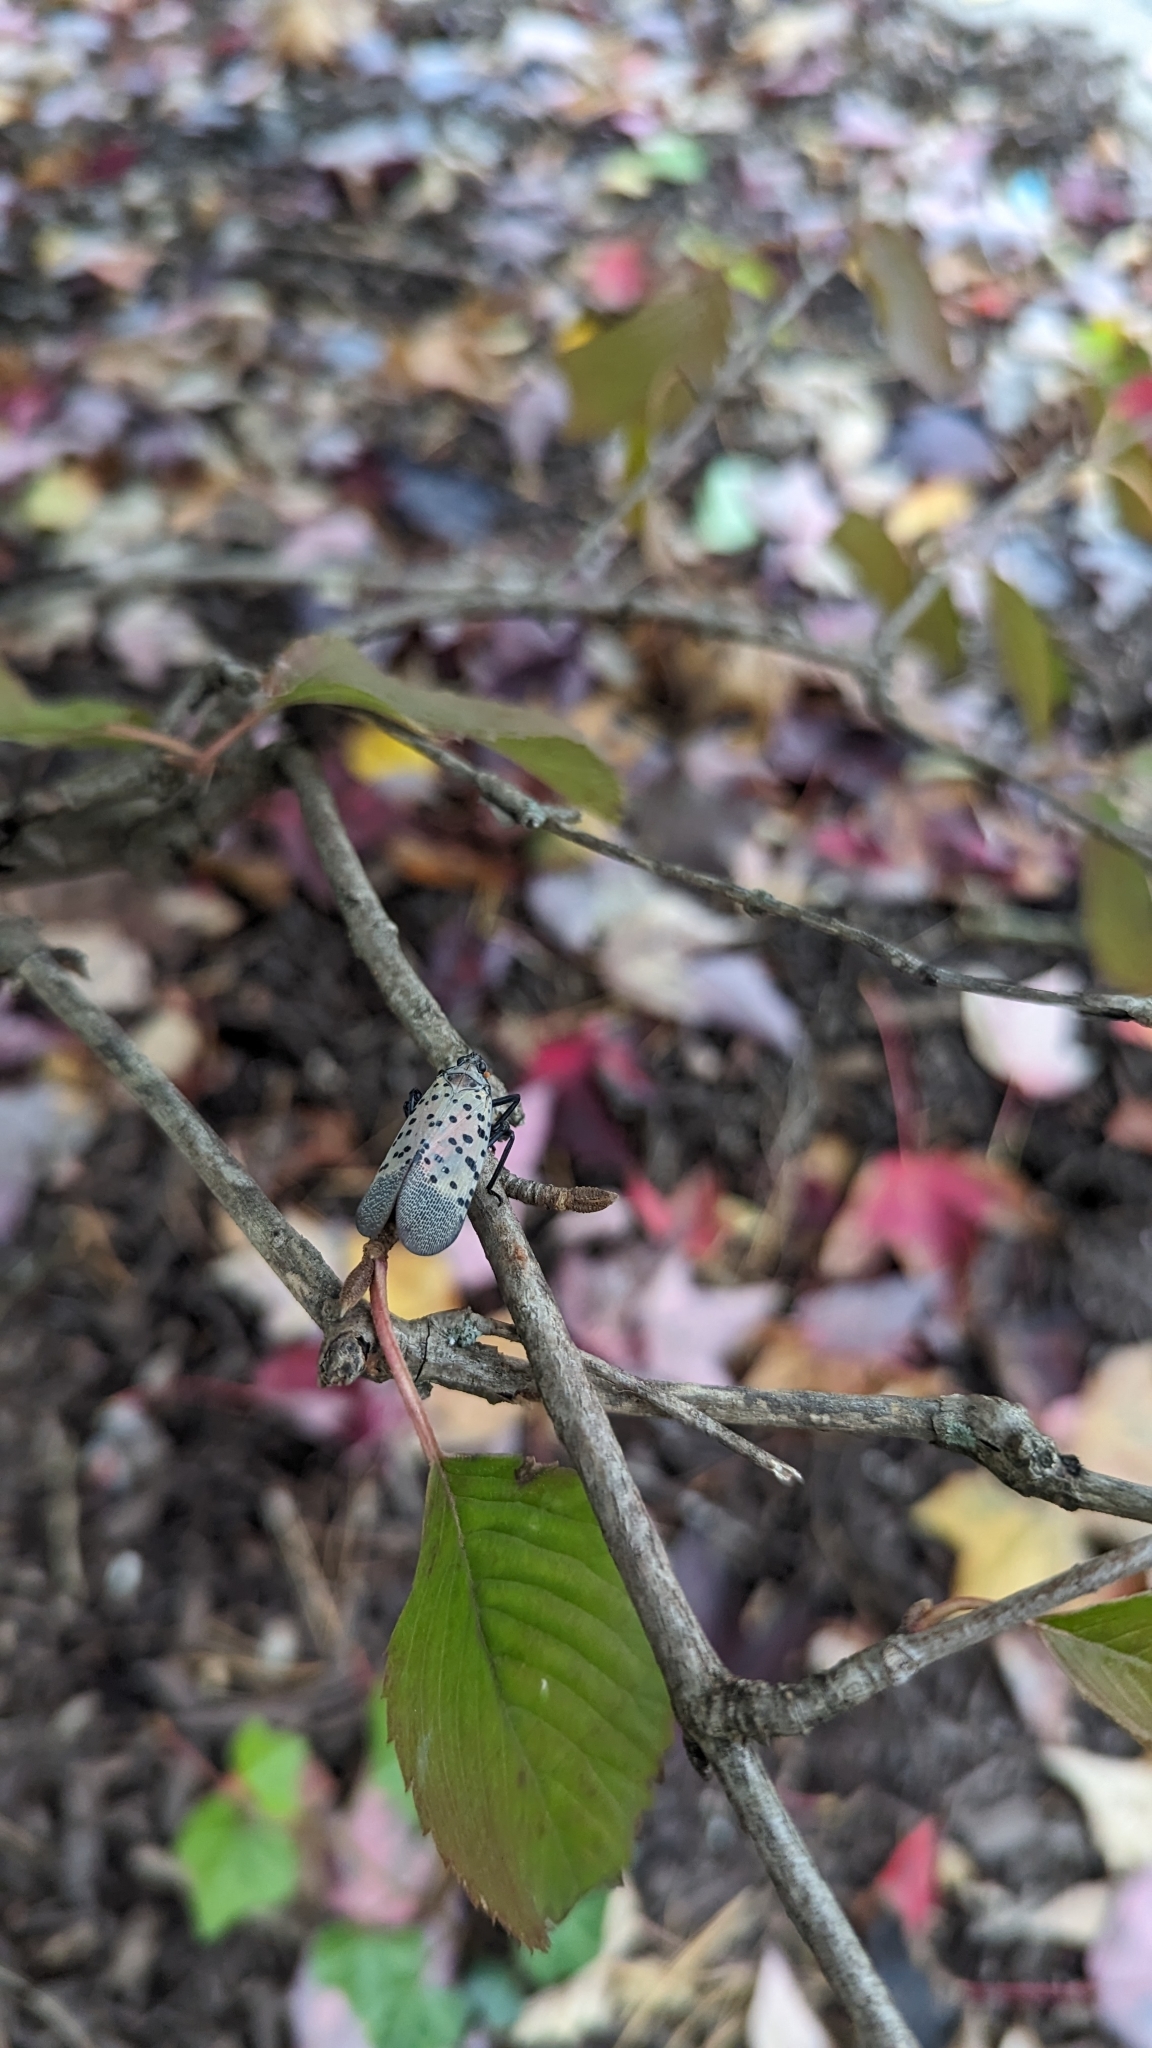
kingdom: Animalia
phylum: Arthropoda
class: Insecta
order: Hemiptera
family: Fulgoridae
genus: Lycorma
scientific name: Lycorma delicatula
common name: Spotted lanternfly
